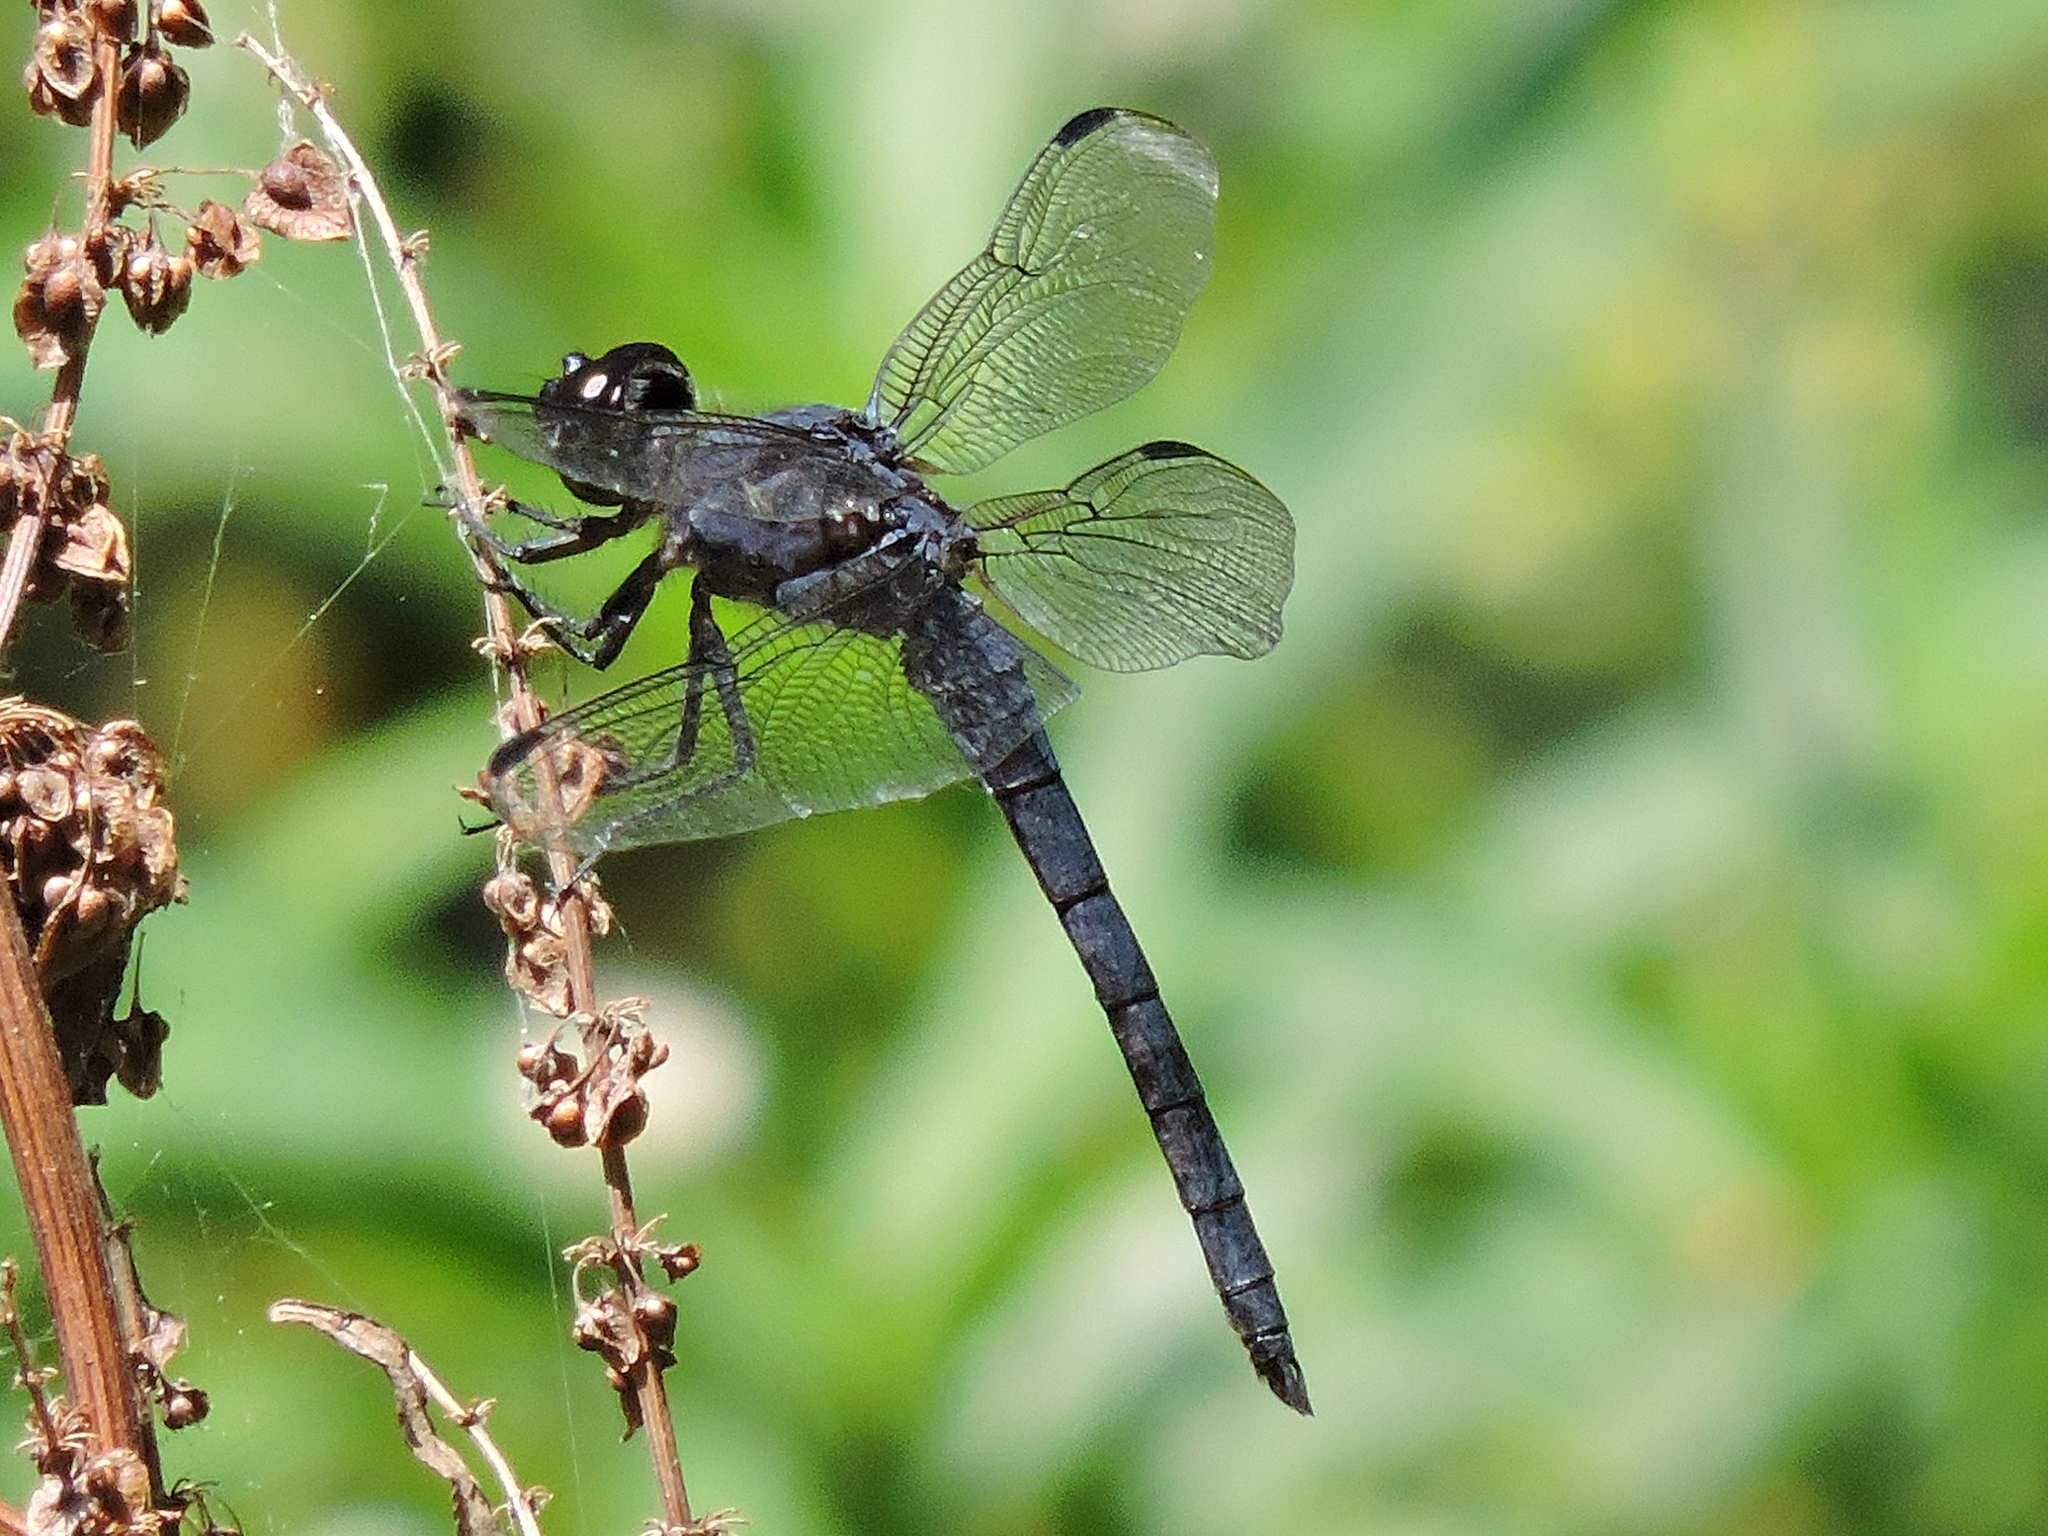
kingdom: Animalia
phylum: Arthropoda
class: Insecta
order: Odonata
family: Libellulidae
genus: Libellula
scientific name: Libellula incesta
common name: Slaty skimmer
